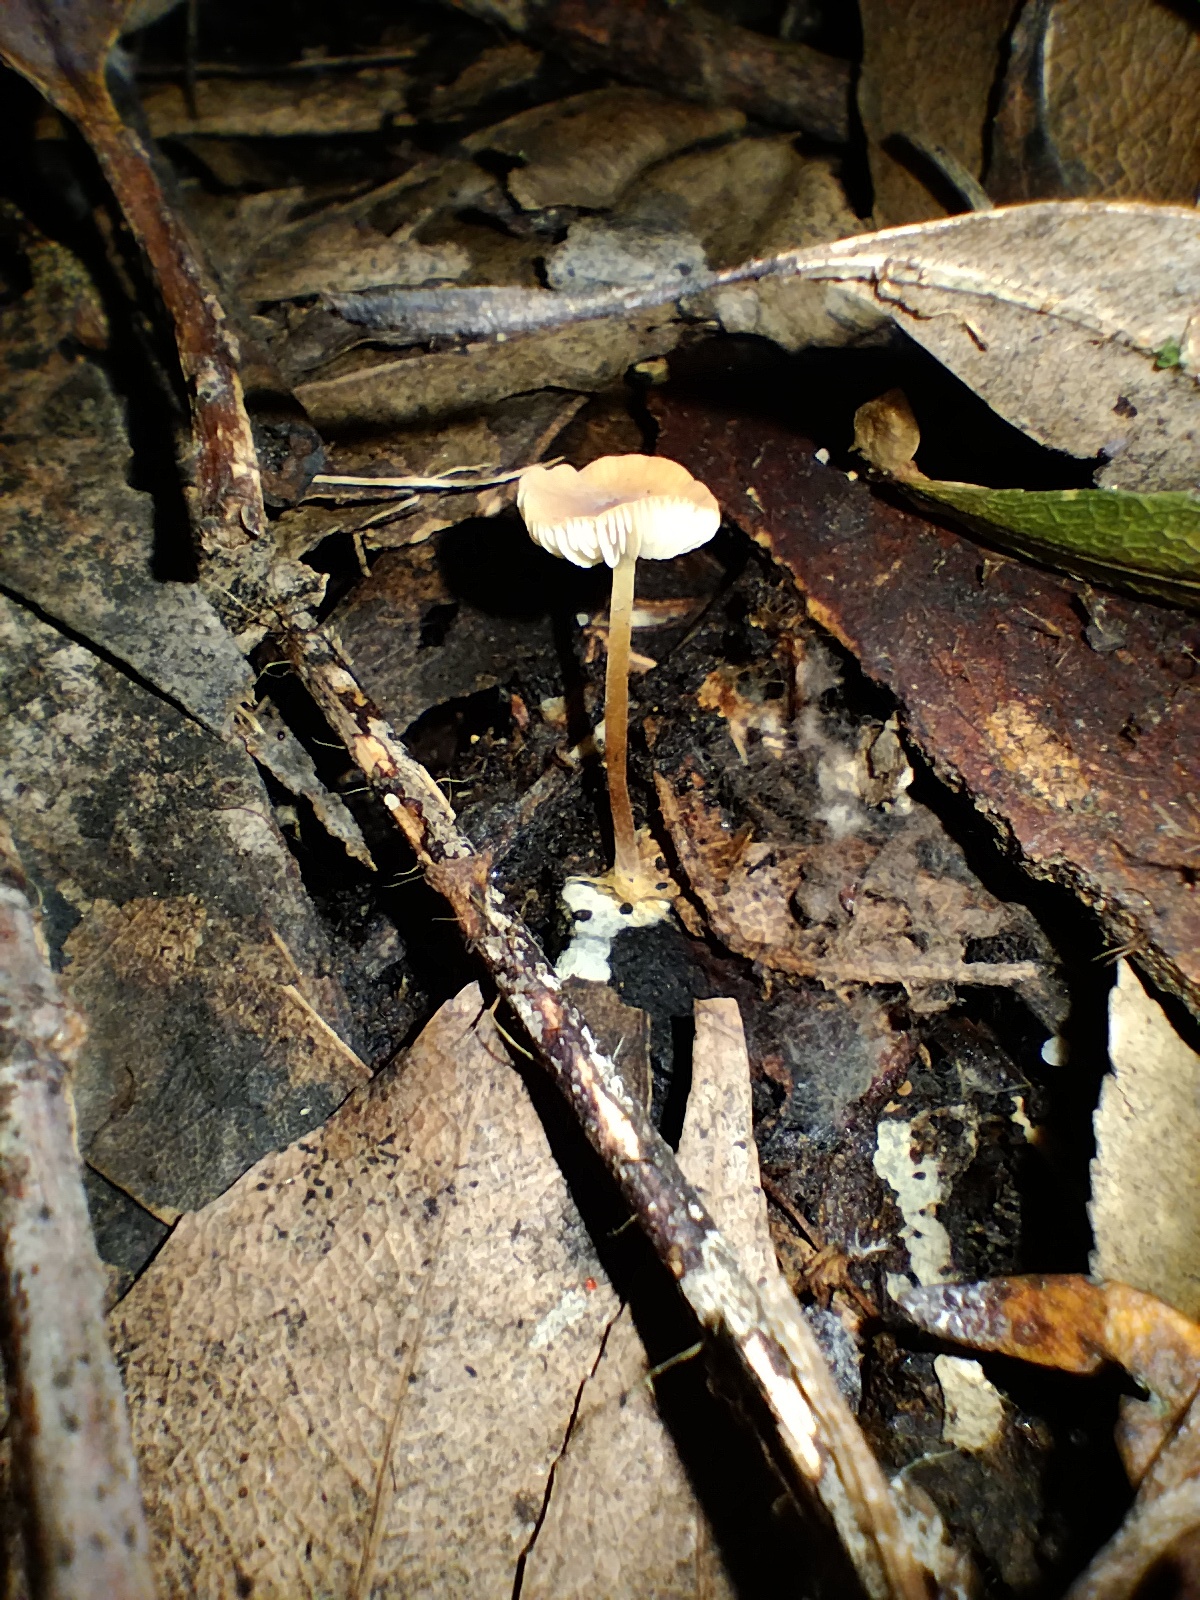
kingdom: Fungi
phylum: Basidiomycota
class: Agaricomycetes
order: Agaricales
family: Marasmiaceae
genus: Marasmius
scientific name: Marasmius elegans
